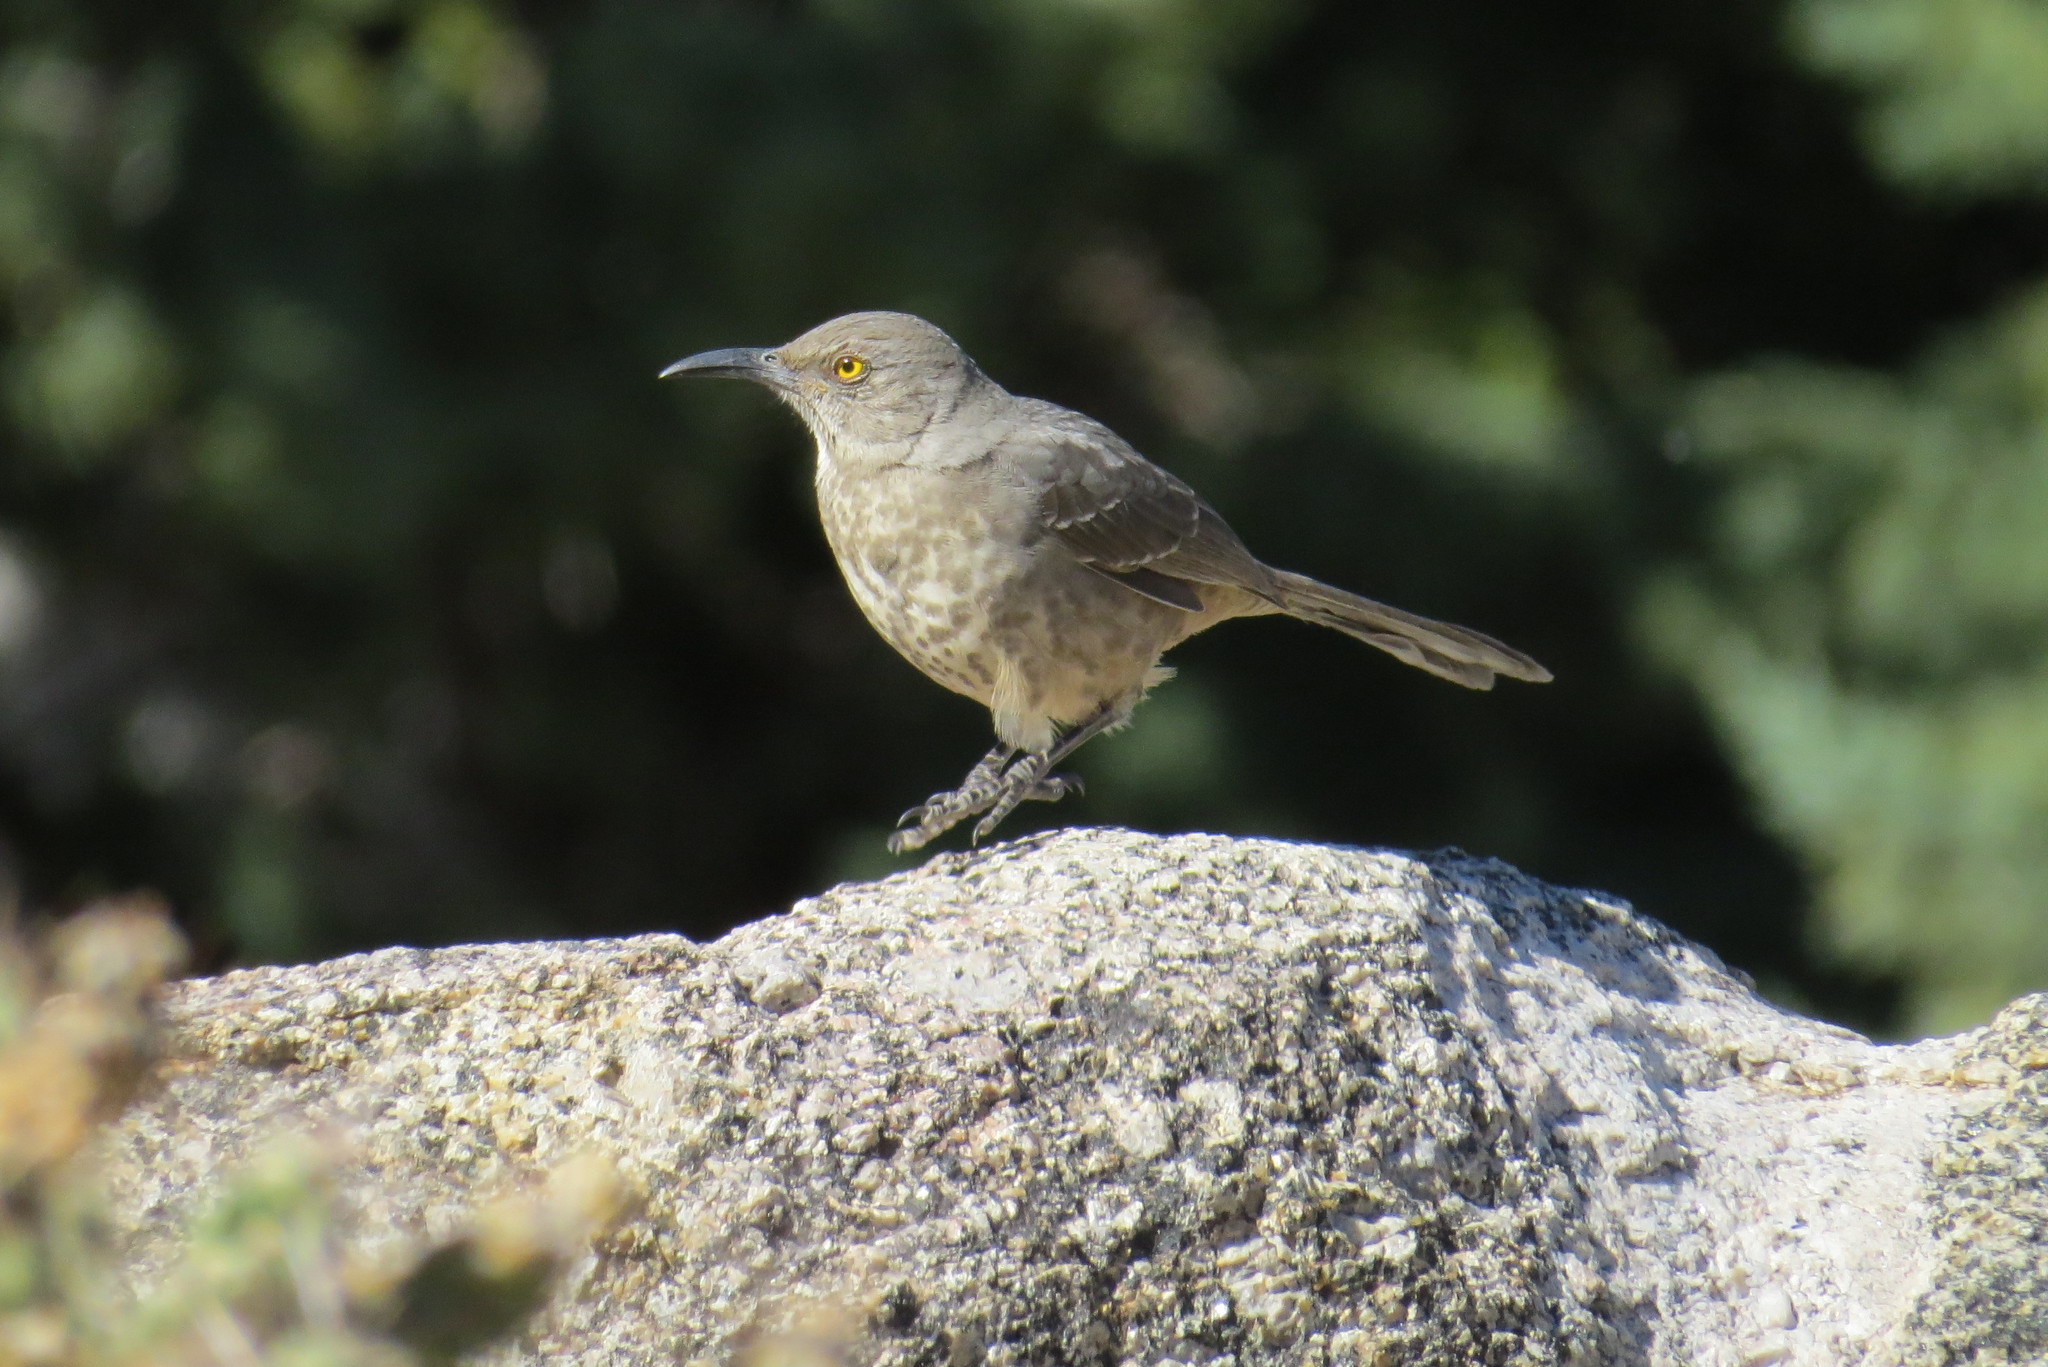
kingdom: Animalia
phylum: Chordata
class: Aves
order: Passeriformes
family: Mimidae
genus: Toxostoma
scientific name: Toxostoma curvirostre
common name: Curve-billed thrasher
